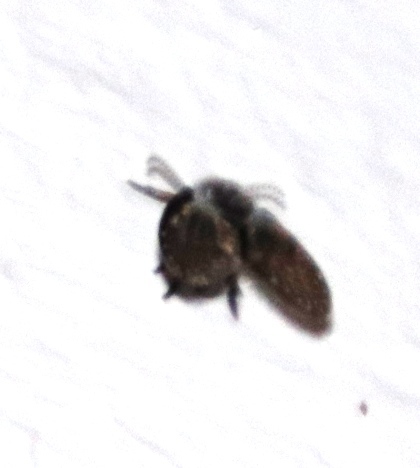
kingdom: Animalia
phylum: Arthropoda
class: Insecta
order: Diptera
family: Psychodidae
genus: Clogmia
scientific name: Clogmia albipunctatus
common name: White-spotted moth fly
